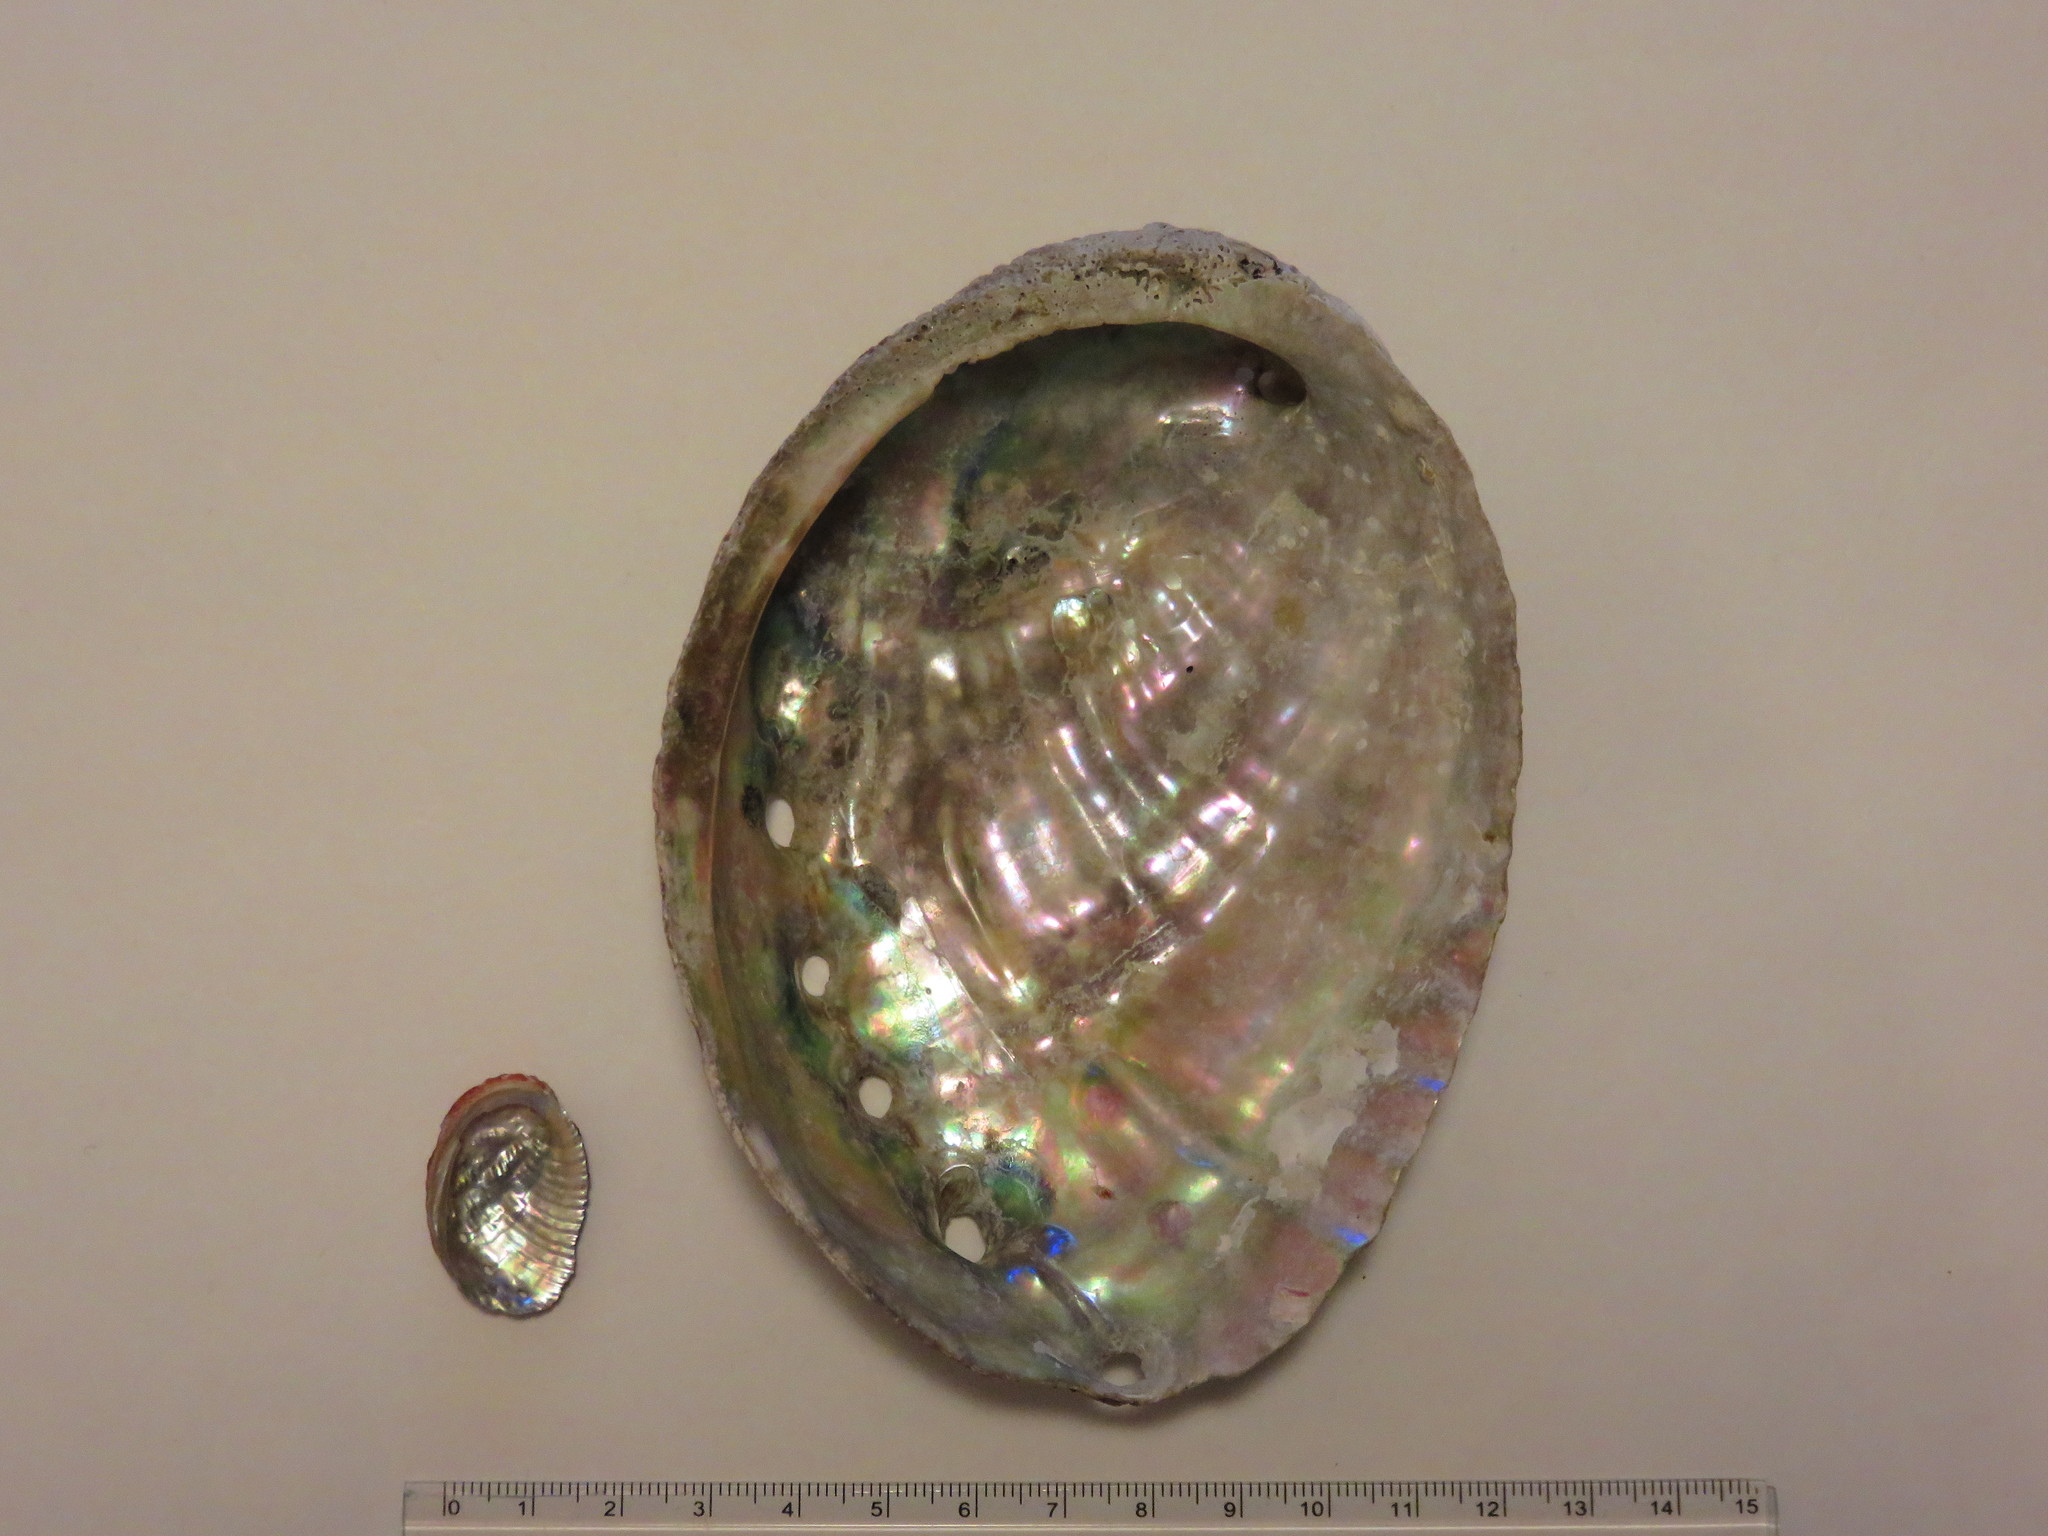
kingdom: Animalia
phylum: Mollusca
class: Gastropoda
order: Lepetellida
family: Haliotidae
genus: Haliotis
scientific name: Haliotis discus
